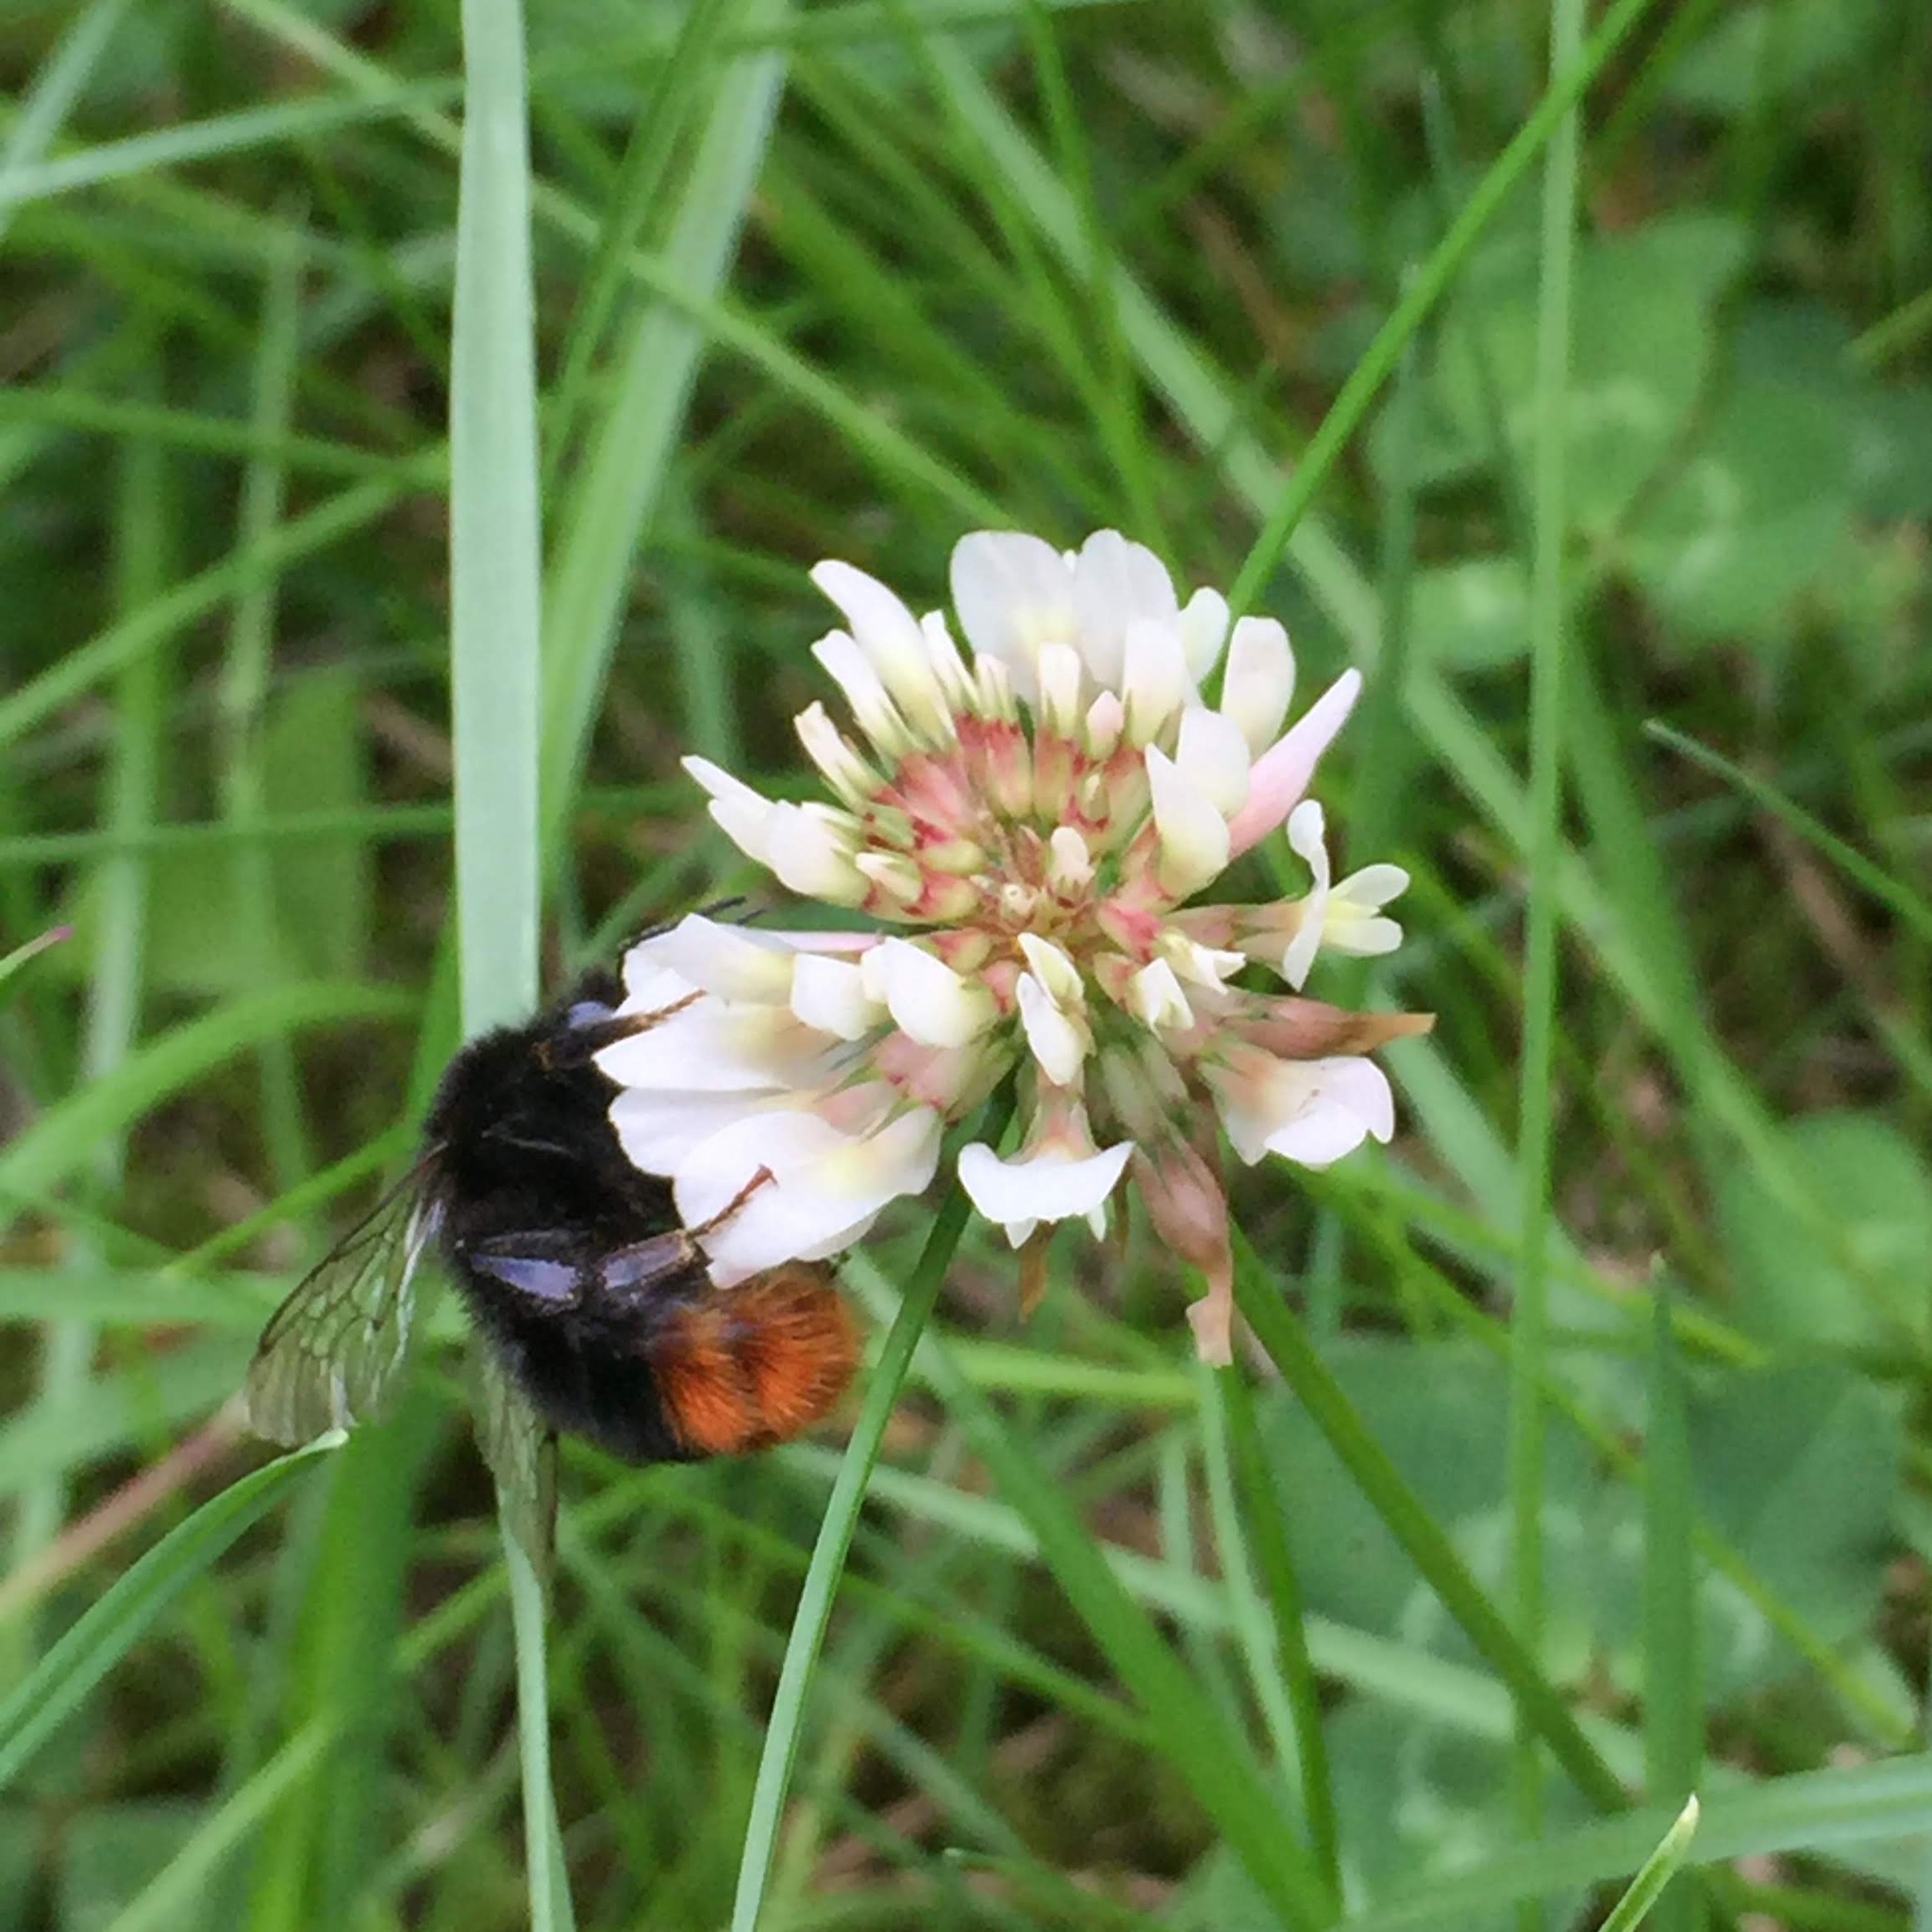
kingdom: Animalia
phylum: Arthropoda
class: Insecta
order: Hymenoptera
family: Apidae
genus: Bombus
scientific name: Bombus lapidarius
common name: Large red-tailed humble-bee
